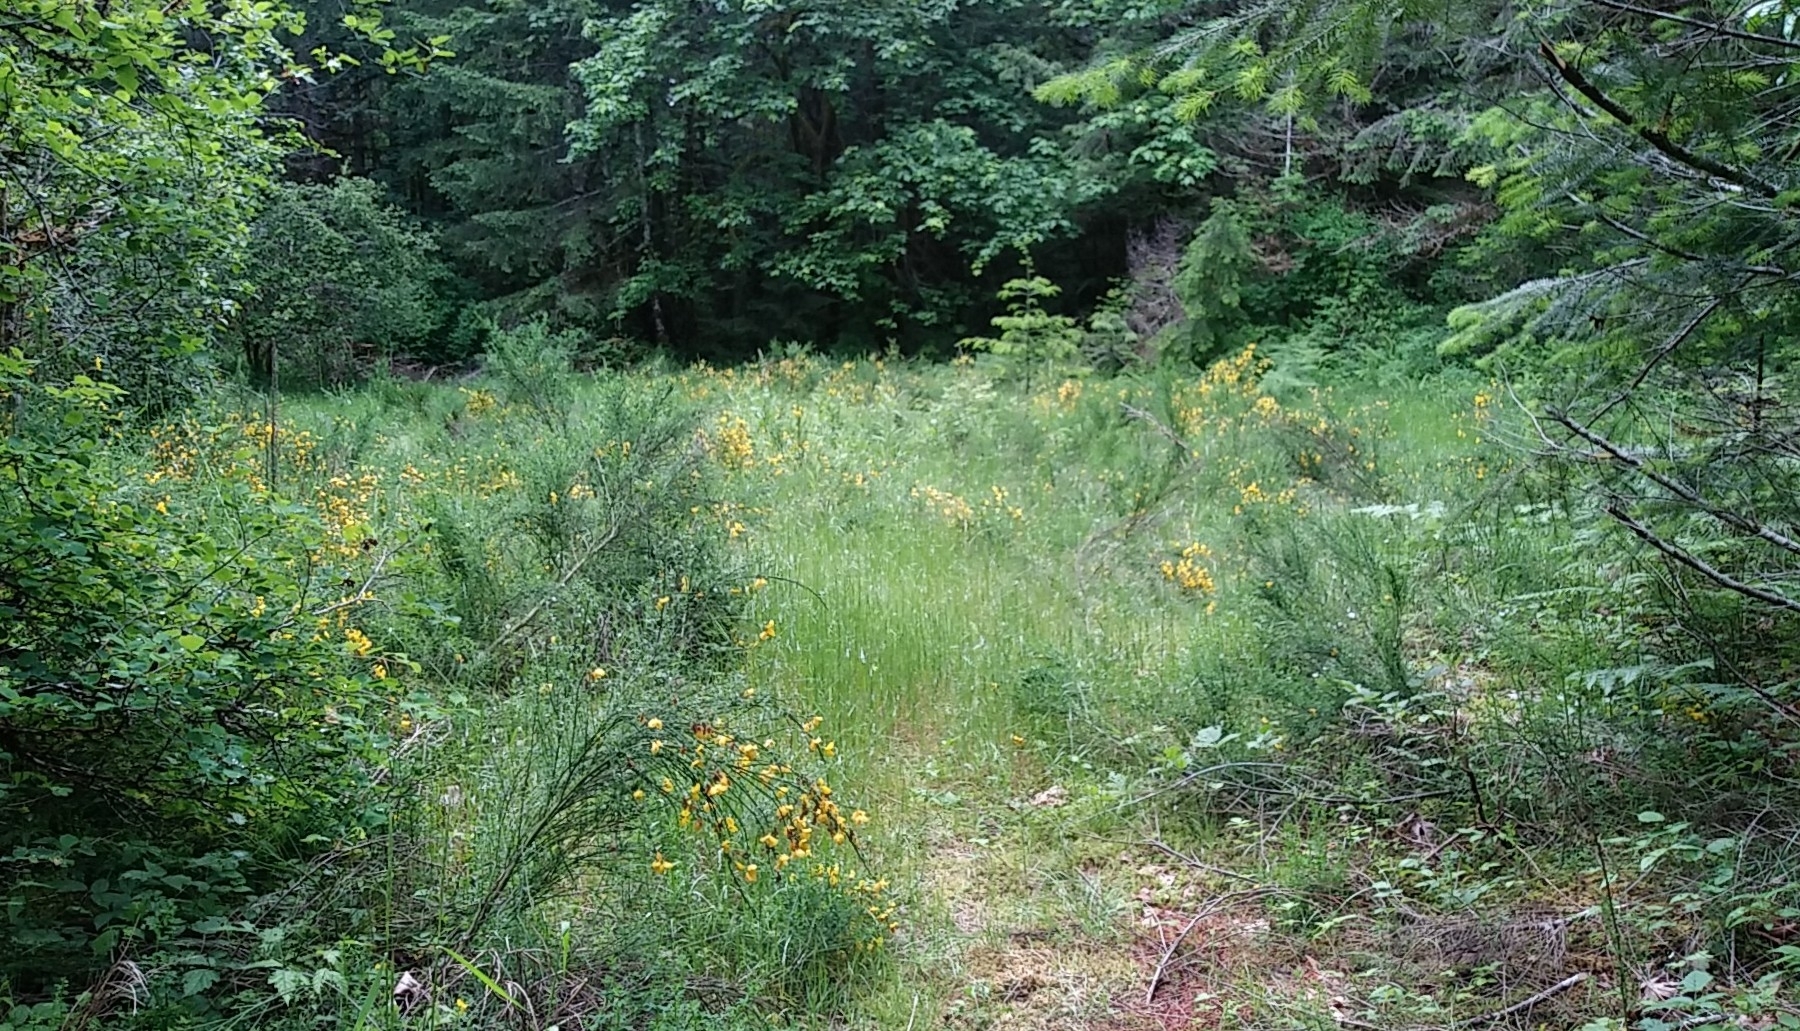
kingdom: Plantae
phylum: Tracheophyta
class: Magnoliopsida
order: Fabales
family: Fabaceae
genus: Cytisus
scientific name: Cytisus scoparius
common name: Scotch broom
